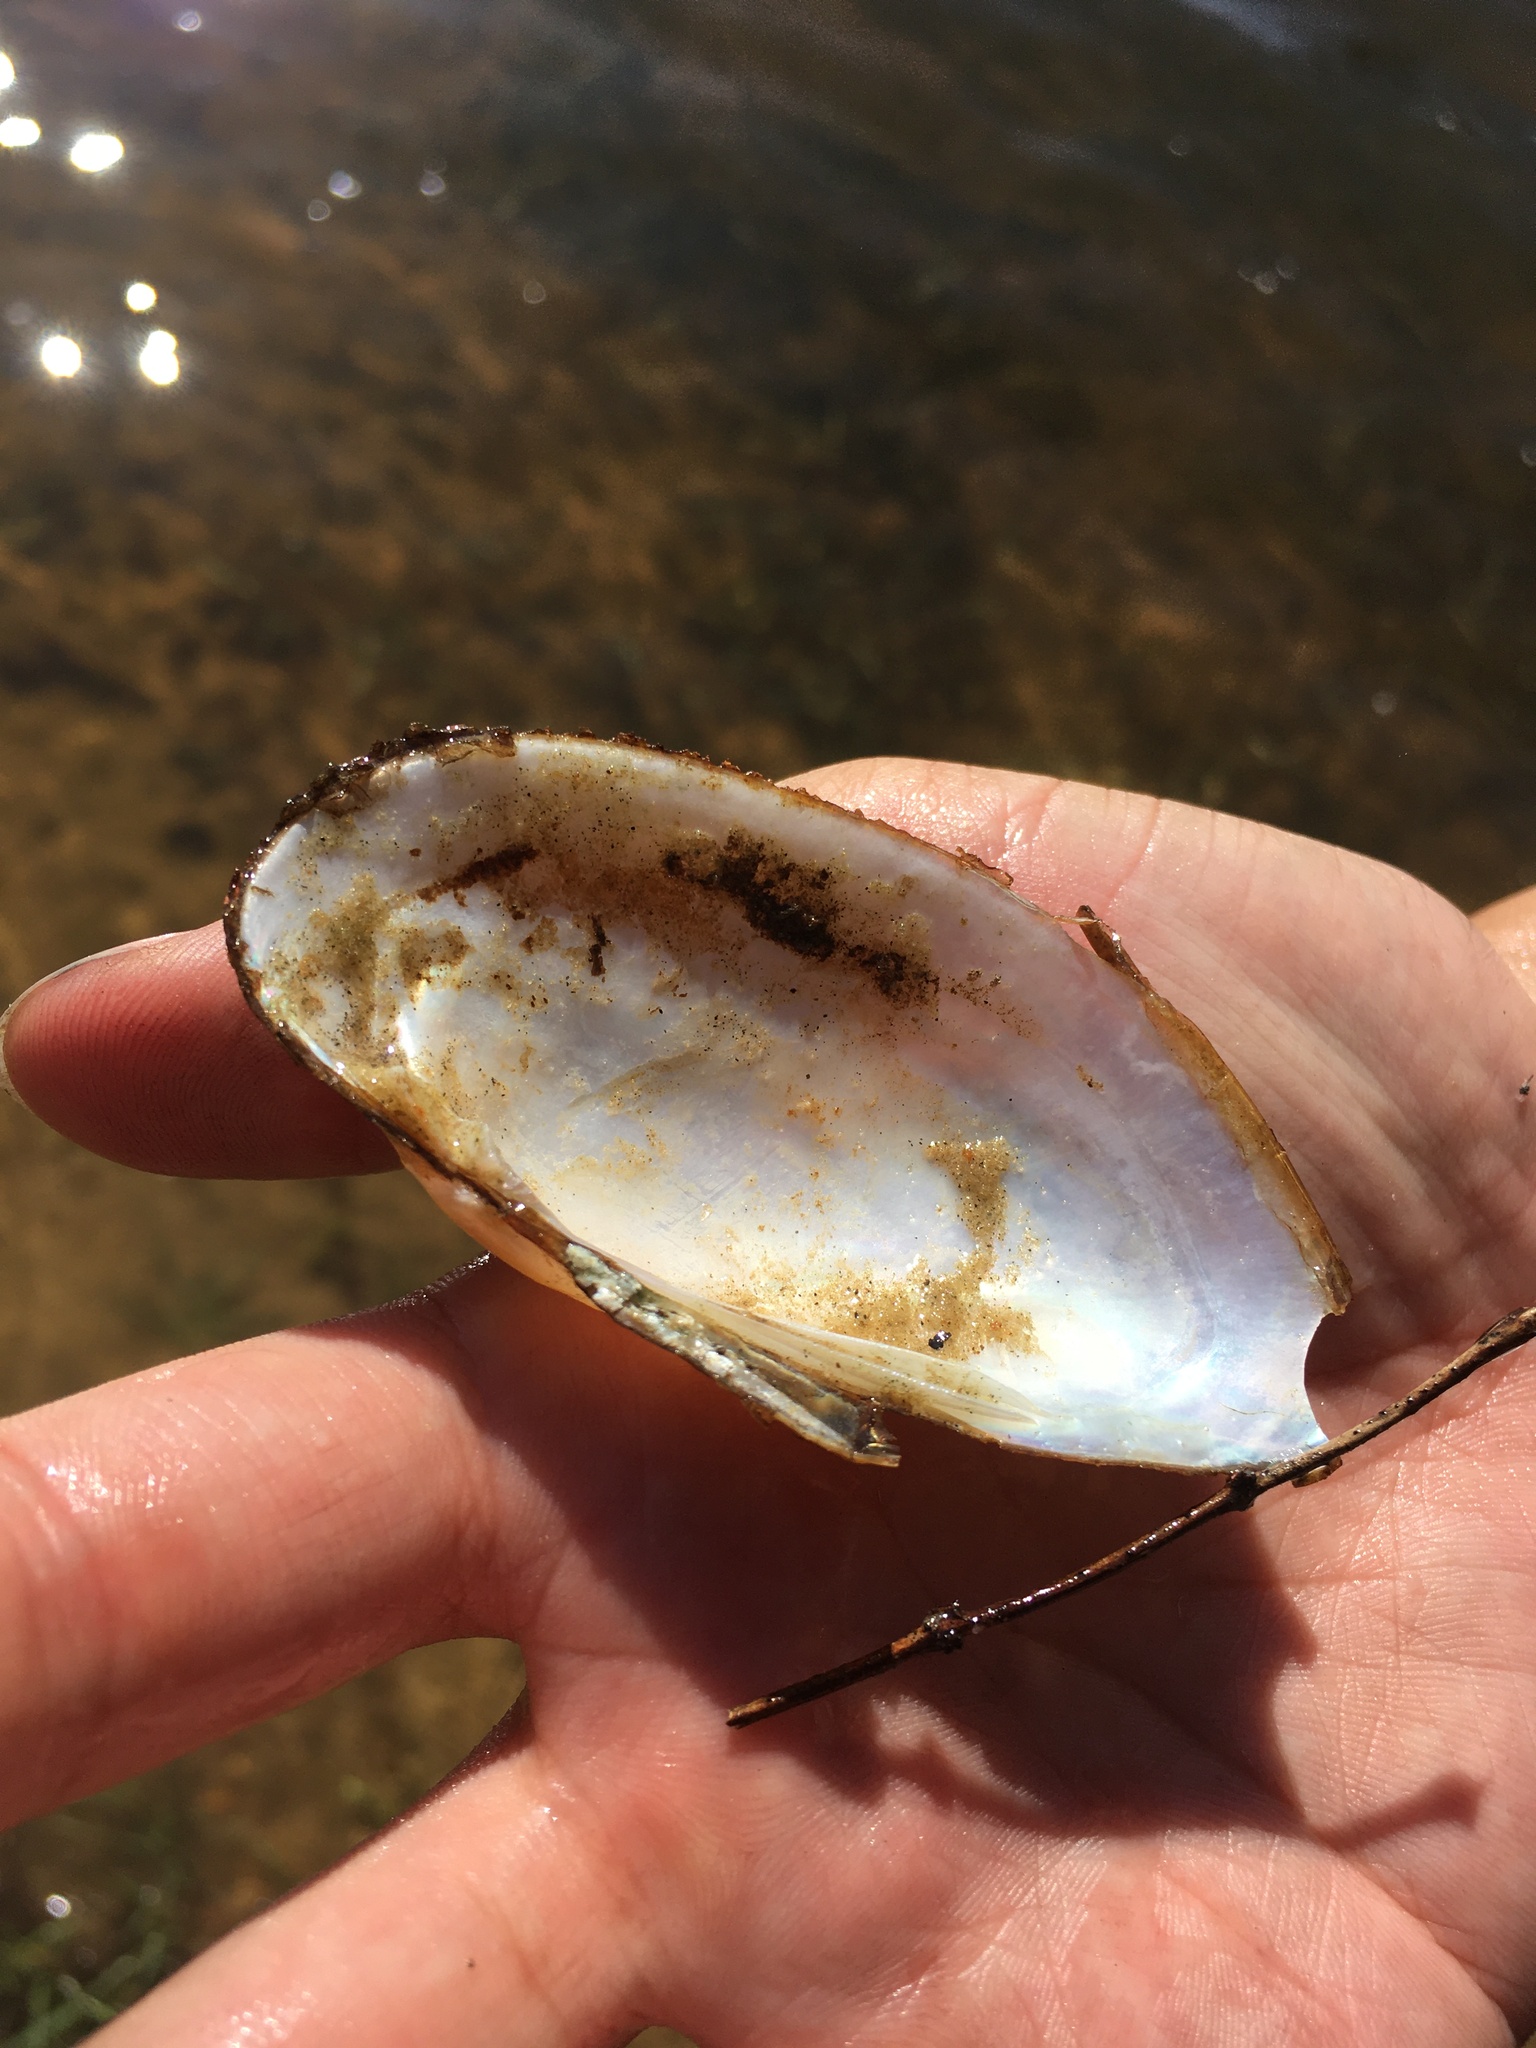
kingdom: Animalia
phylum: Mollusca
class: Bivalvia
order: Unionida
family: Unionidae
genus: Lampsilis
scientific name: Lampsilis floridensis
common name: Florida sandshell
